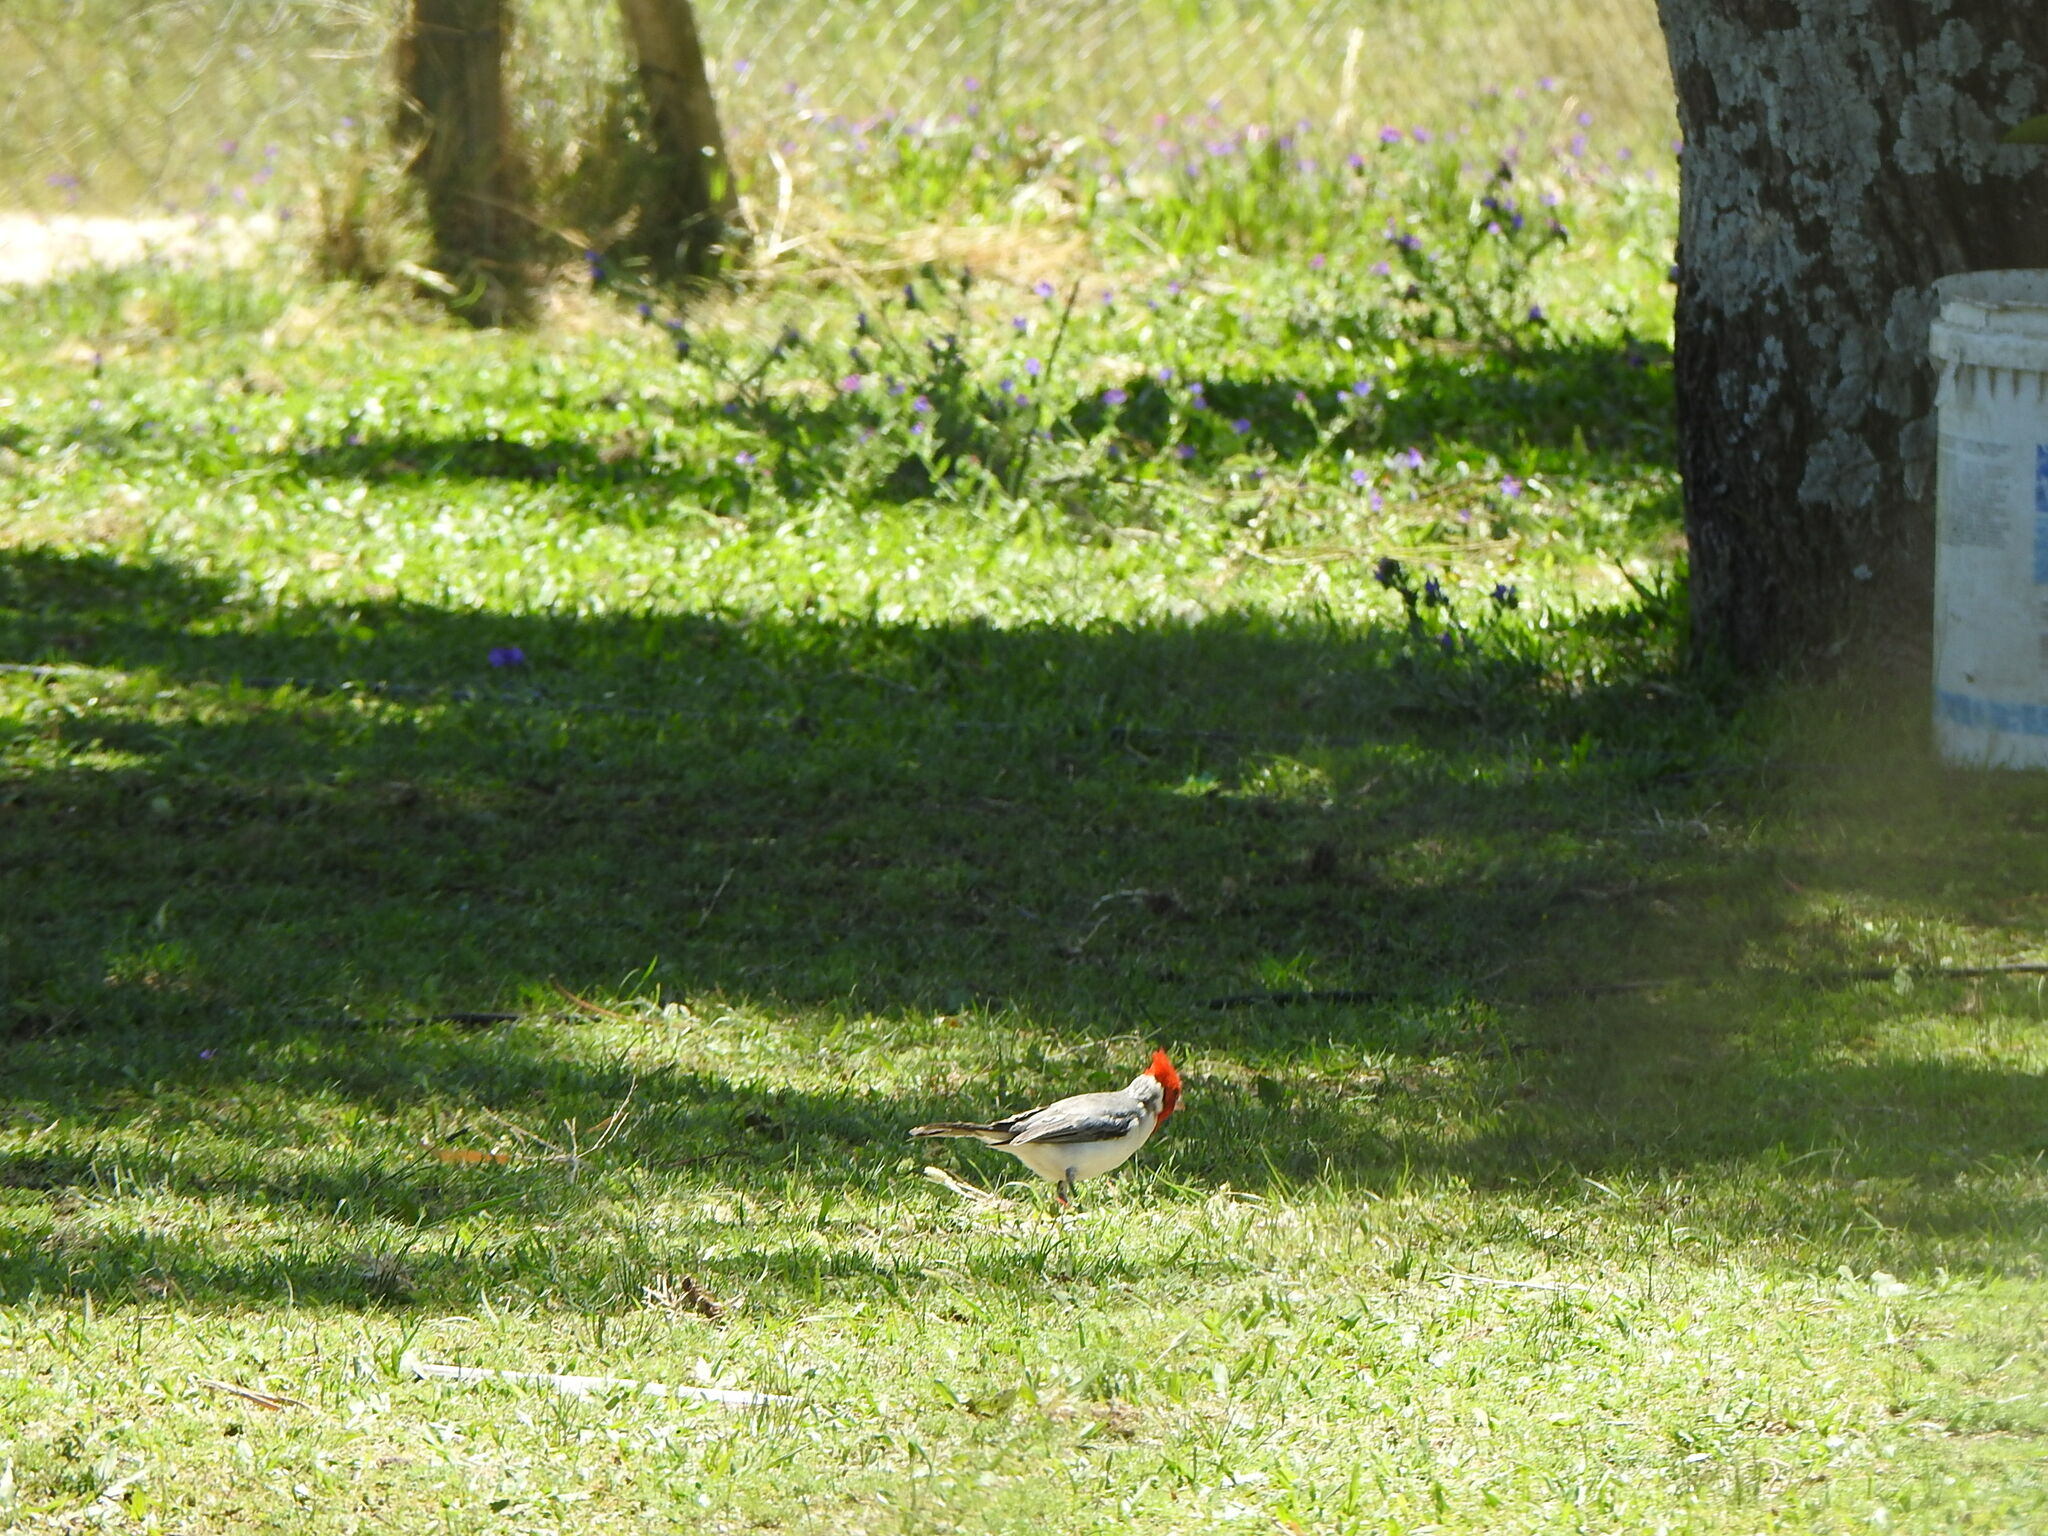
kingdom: Animalia
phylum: Chordata
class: Aves
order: Passeriformes
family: Thraupidae
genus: Paroaria
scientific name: Paroaria coronata
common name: Red-crested cardinal
